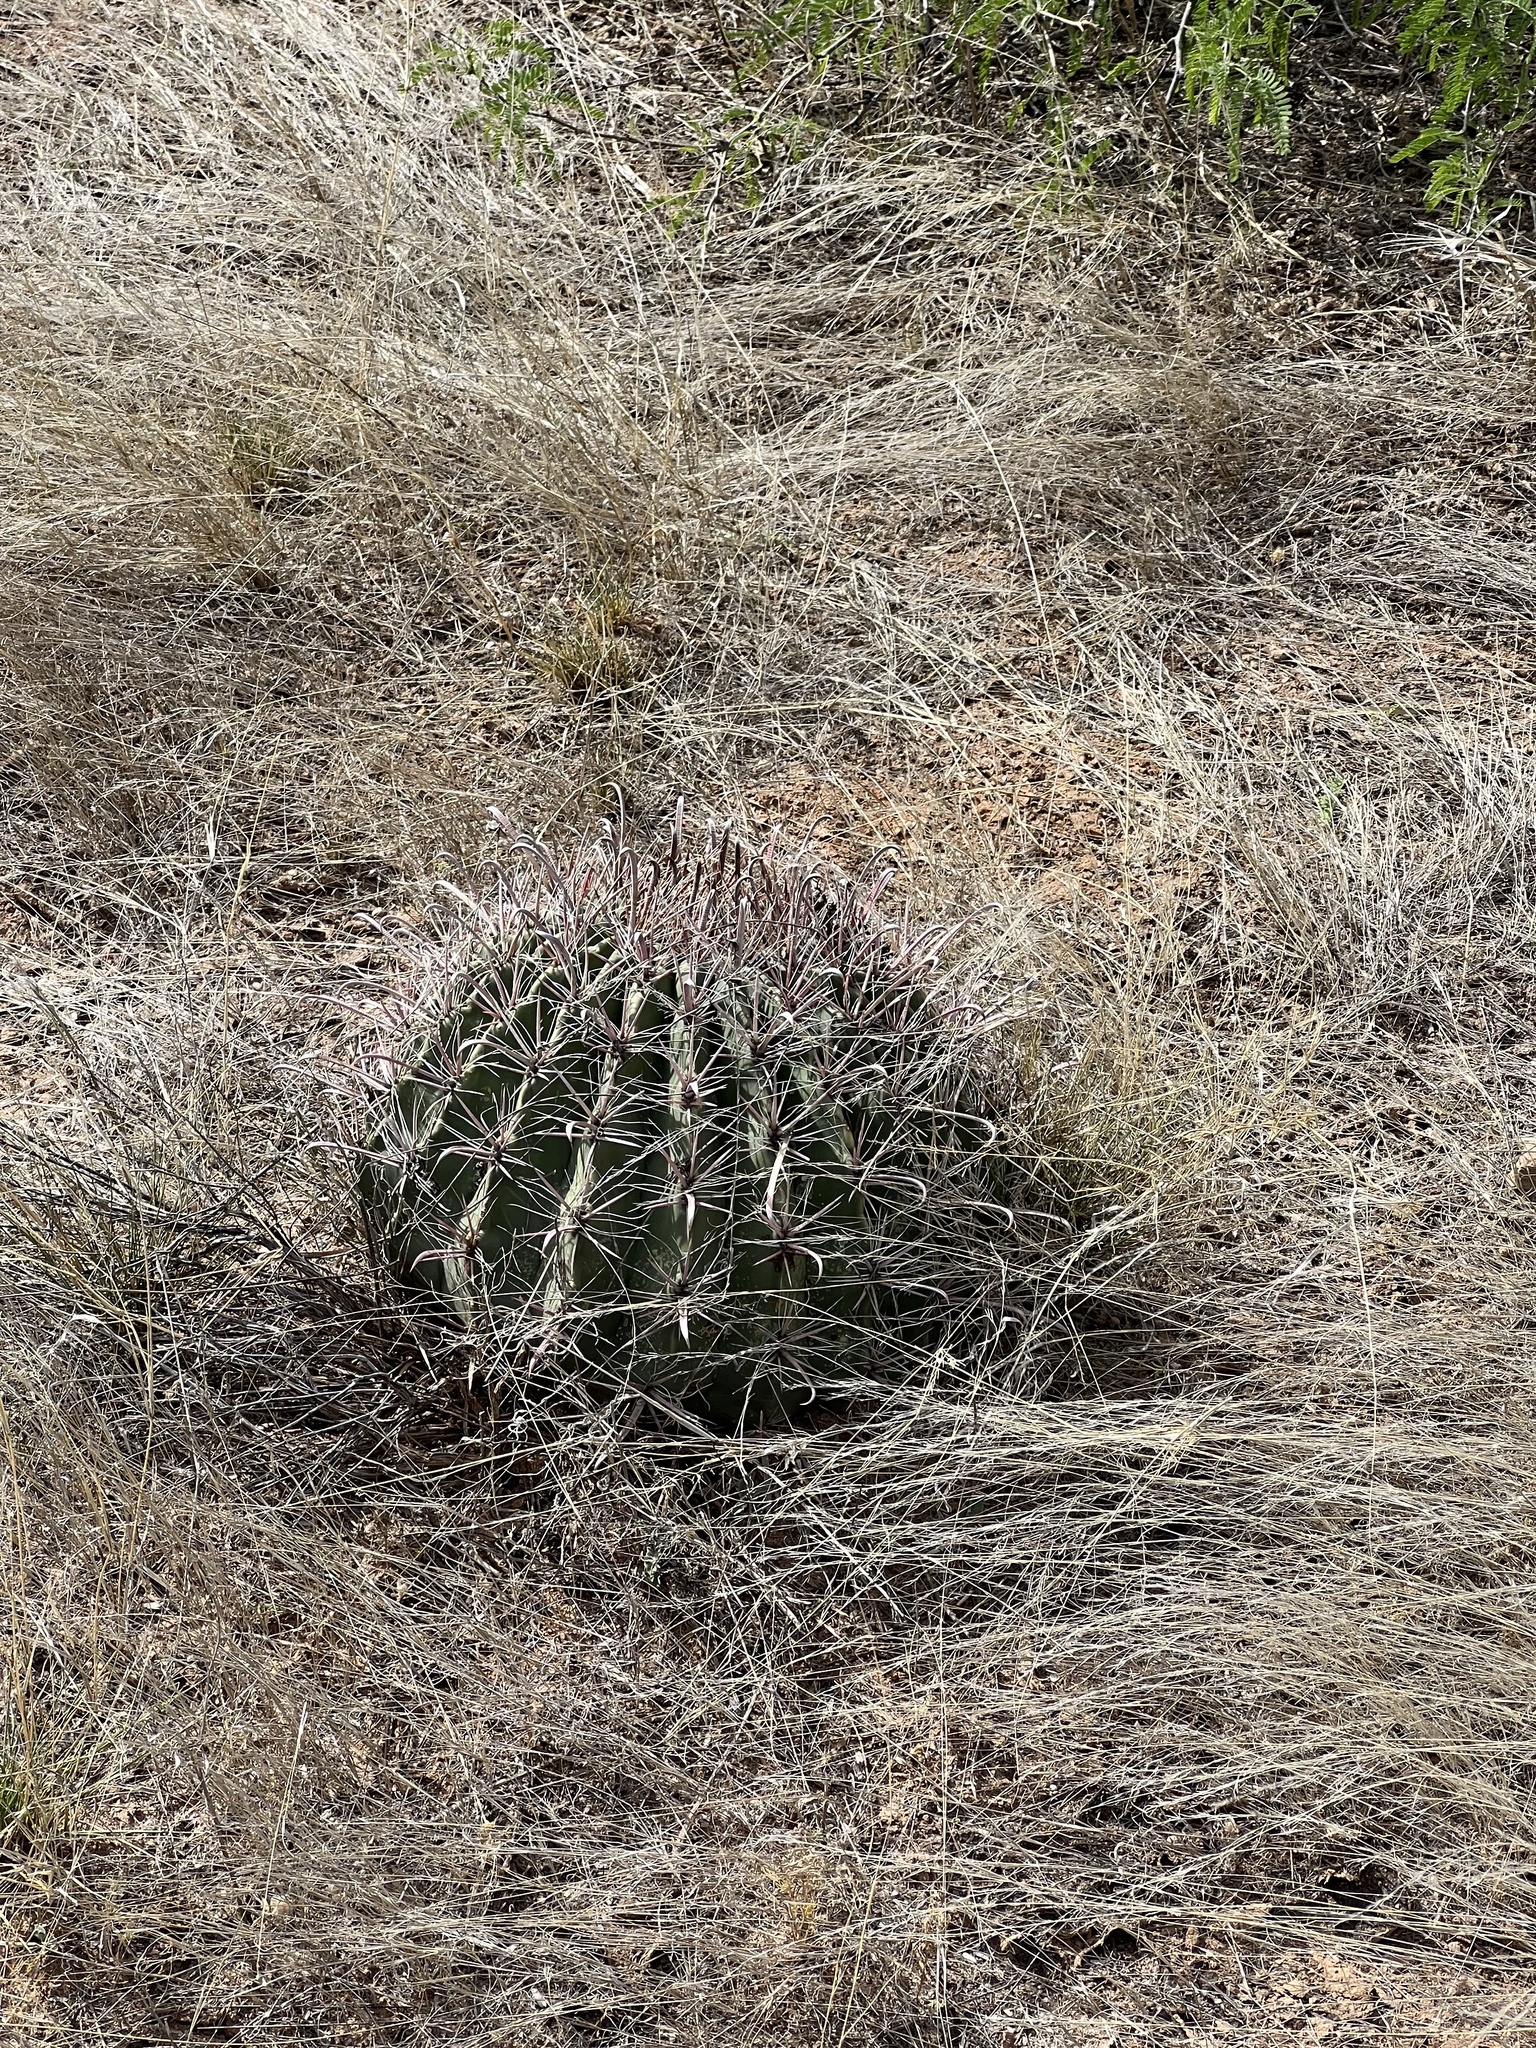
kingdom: Plantae
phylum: Tracheophyta
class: Magnoliopsida
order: Caryophyllales
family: Cactaceae
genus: Ferocactus
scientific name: Ferocactus wislizeni
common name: Candy barrel cactus
